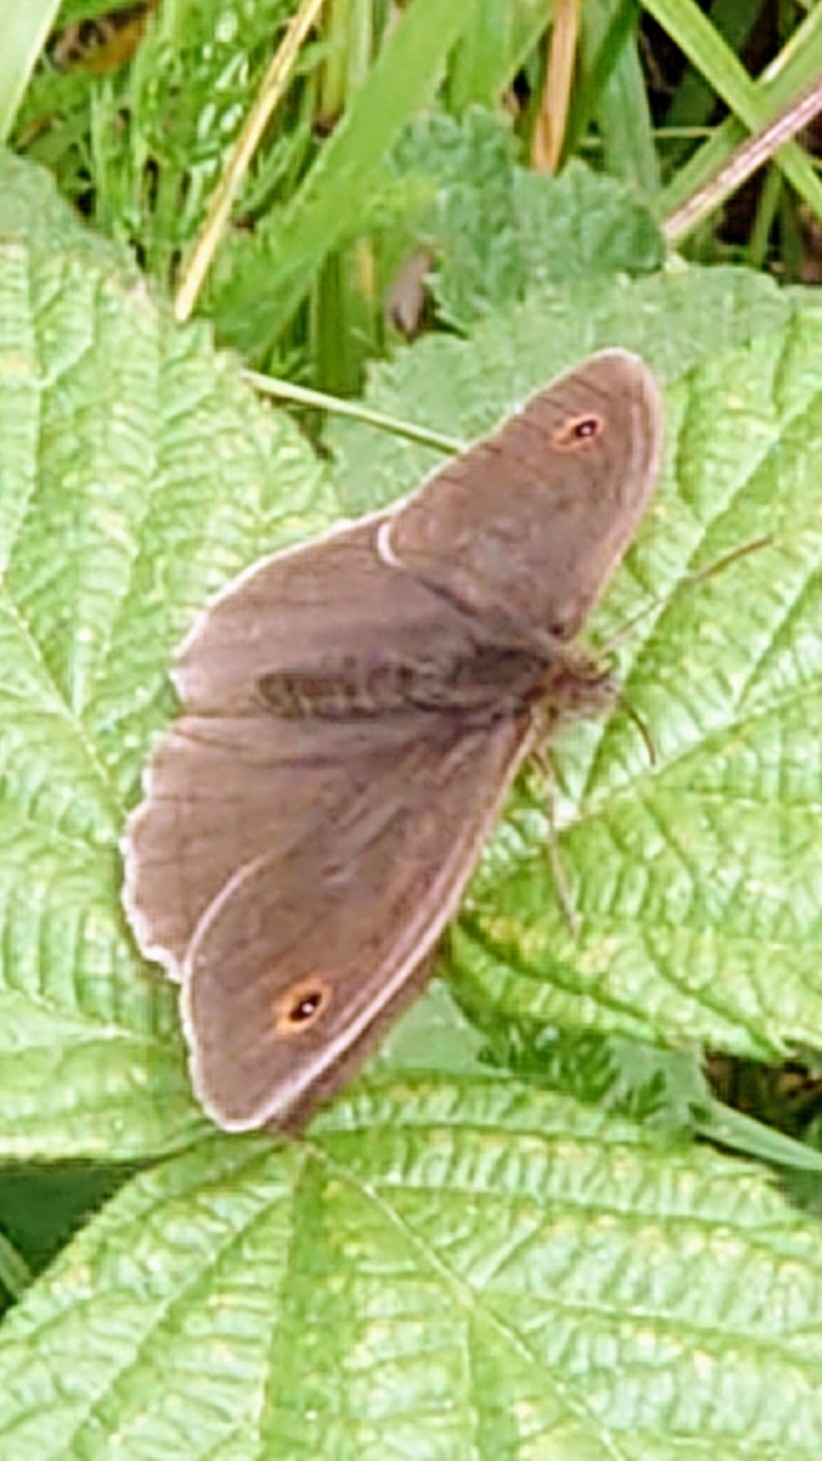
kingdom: Animalia
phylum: Arthropoda
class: Insecta
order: Lepidoptera
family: Nymphalidae
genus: Maniola
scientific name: Maniola jurtina
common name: Meadow brown
